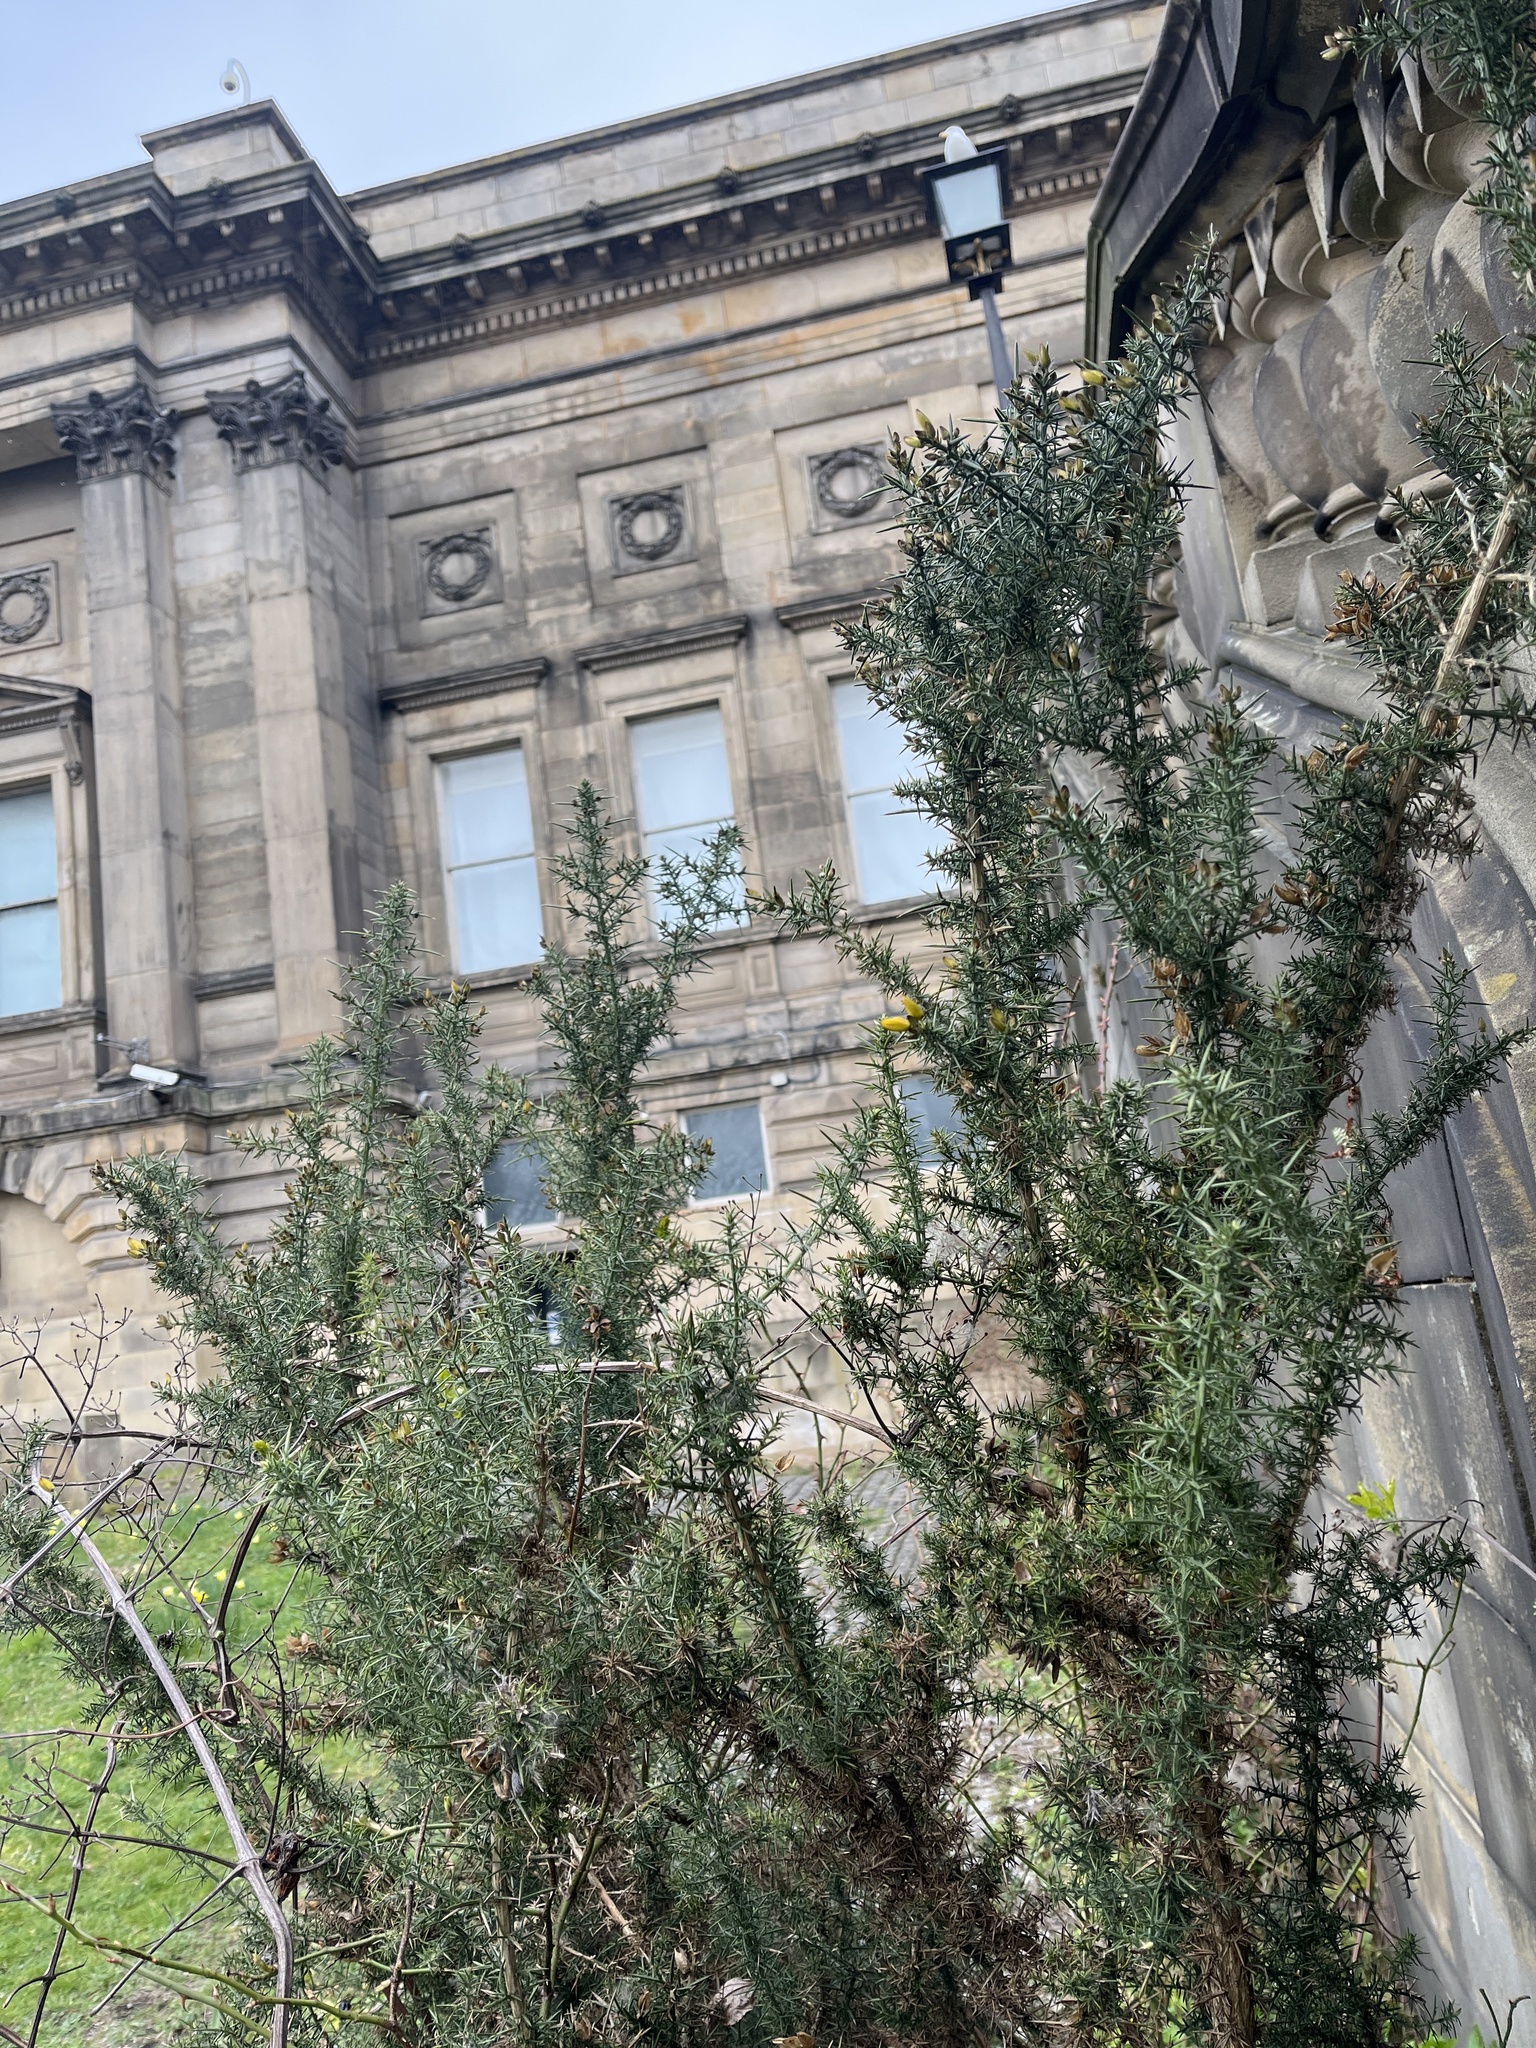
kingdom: Plantae
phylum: Tracheophyta
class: Magnoliopsida
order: Fabales
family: Fabaceae
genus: Ulex
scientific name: Ulex europaeus
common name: Common gorse
